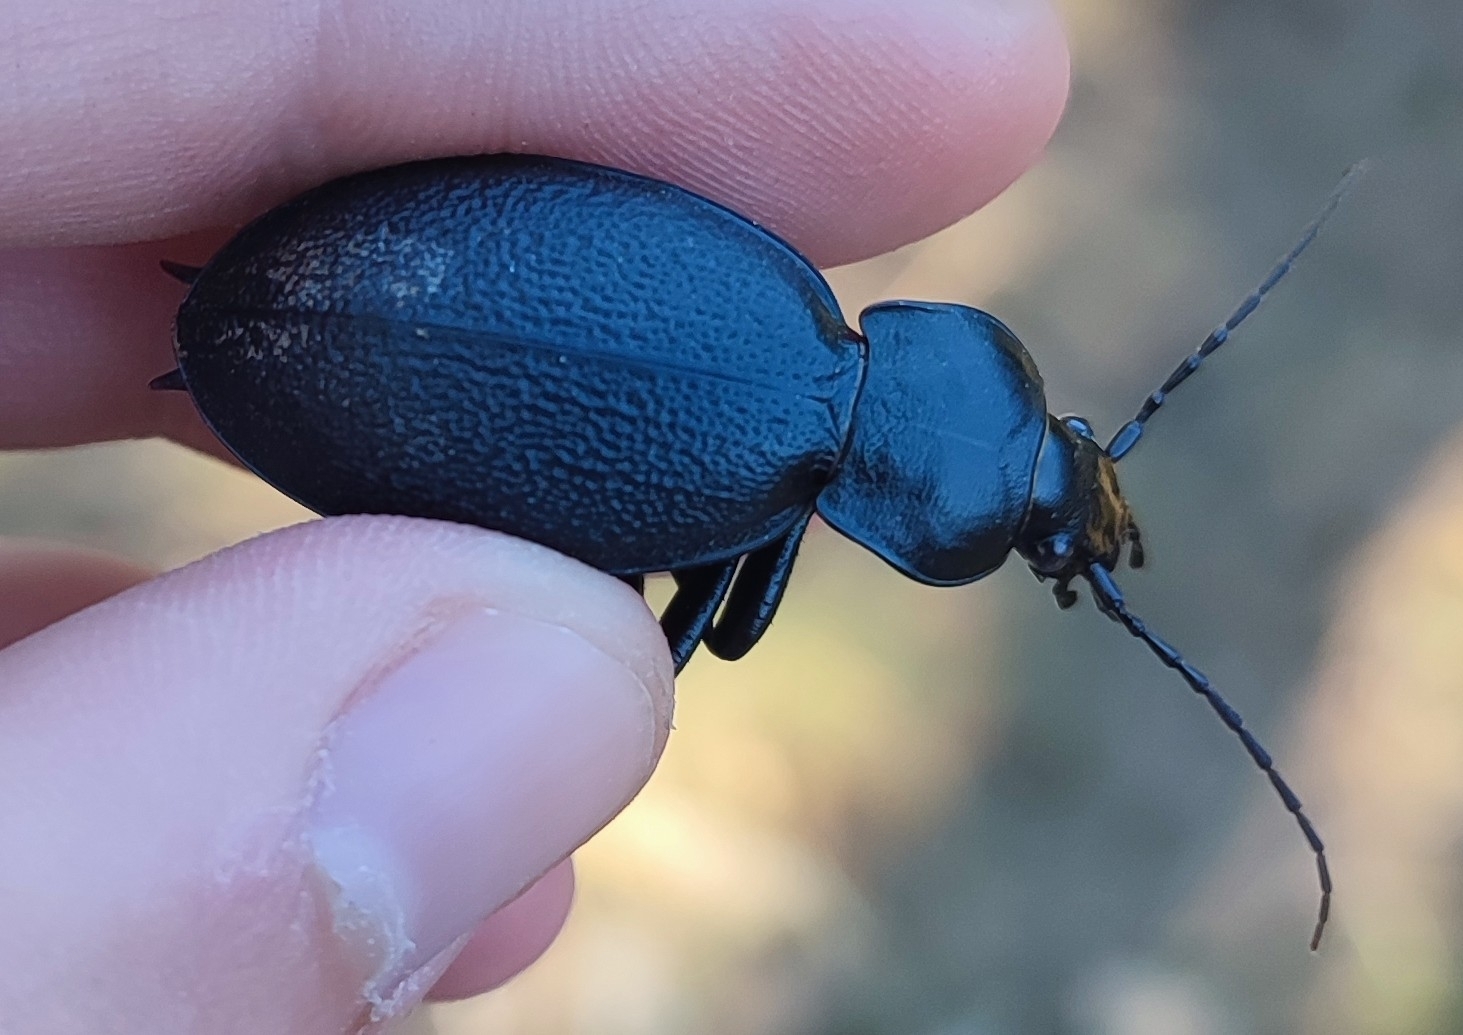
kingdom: Animalia
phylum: Arthropoda
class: Insecta
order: Coleoptera
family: Carabidae
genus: Carabus
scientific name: Carabus coriaceus
